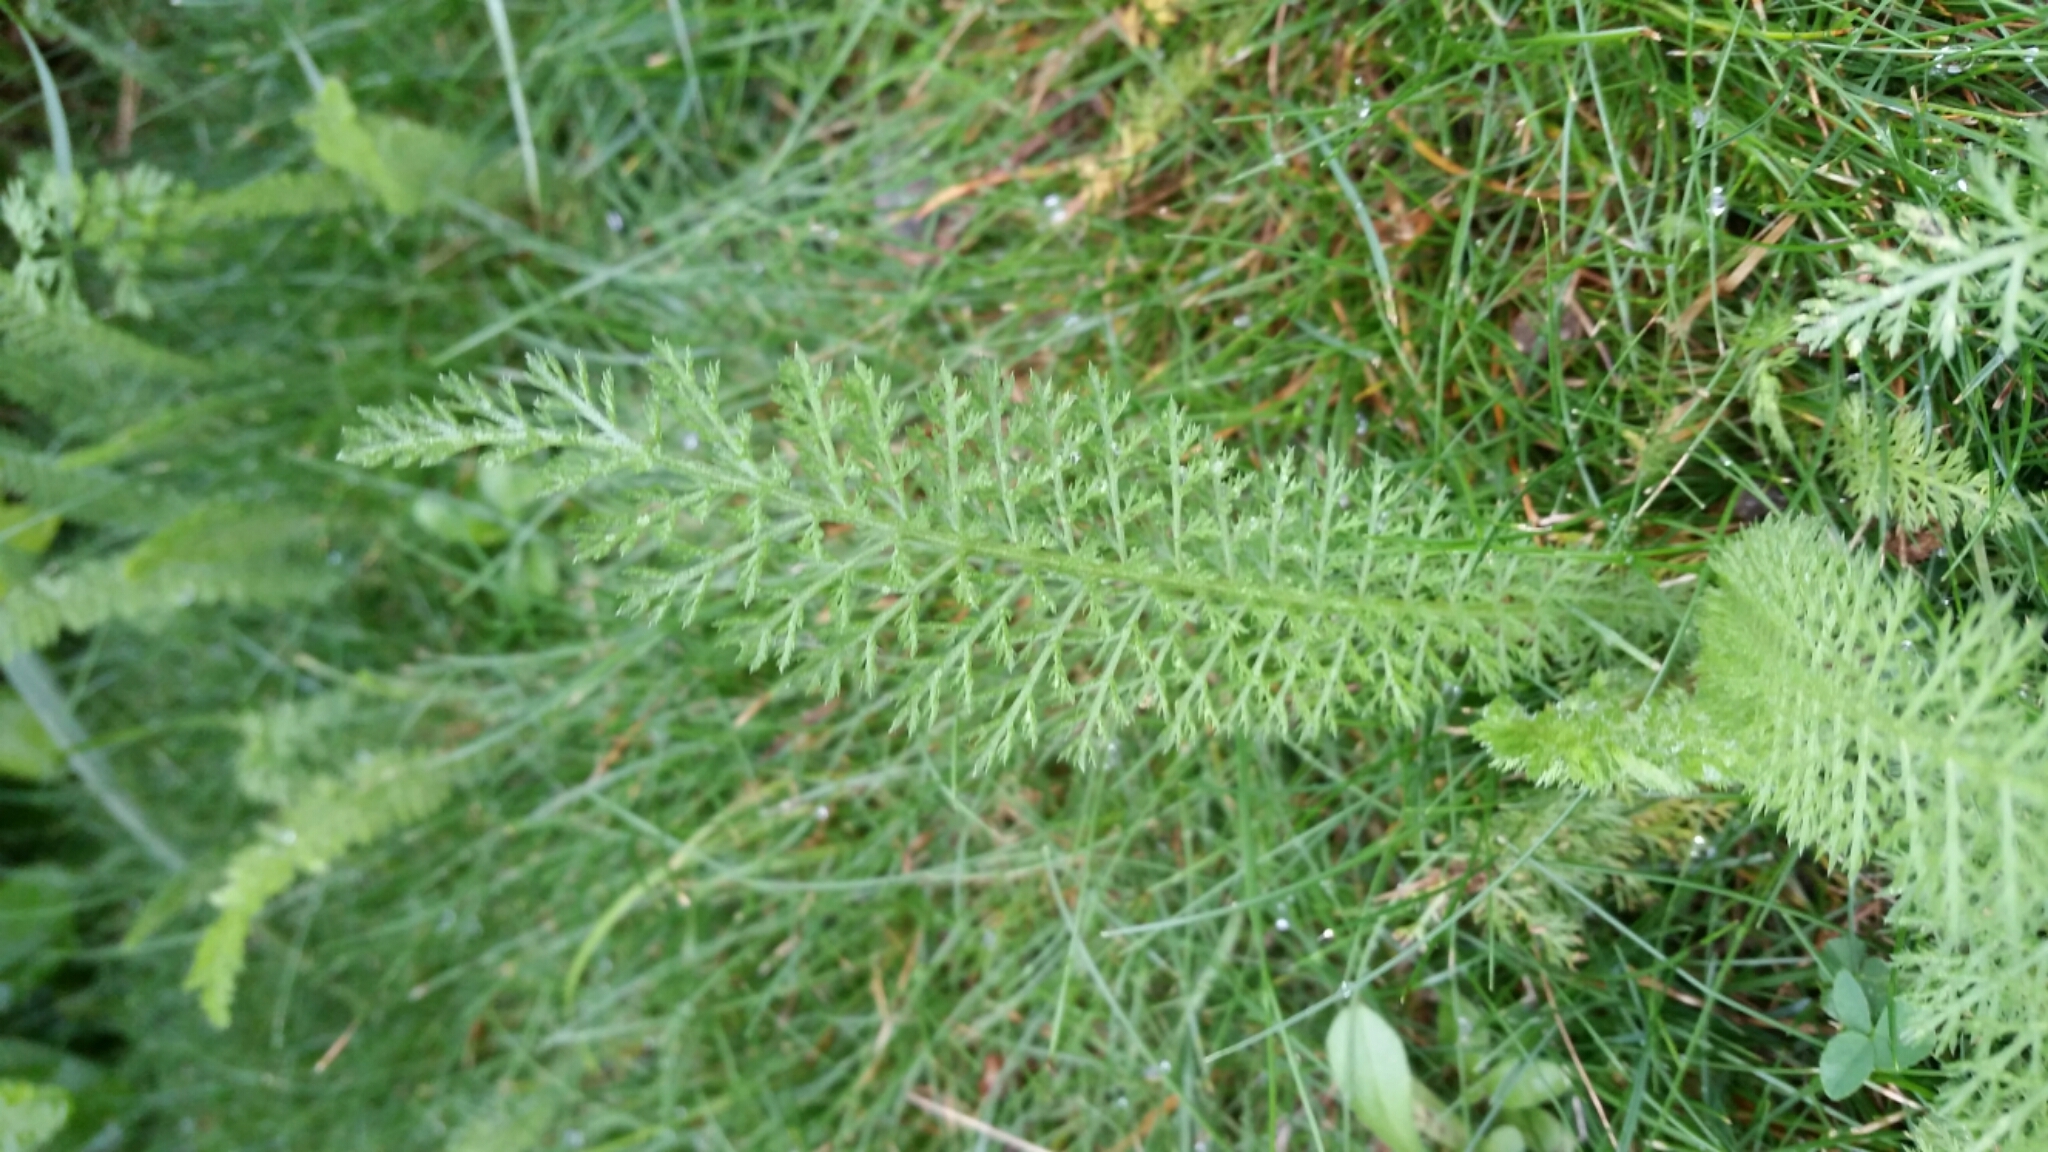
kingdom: Plantae
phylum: Tracheophyta
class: Magnoliopsida
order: Asterales
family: Asteraceae
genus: Achillea
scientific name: Achillea millefolium
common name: Yarrow
